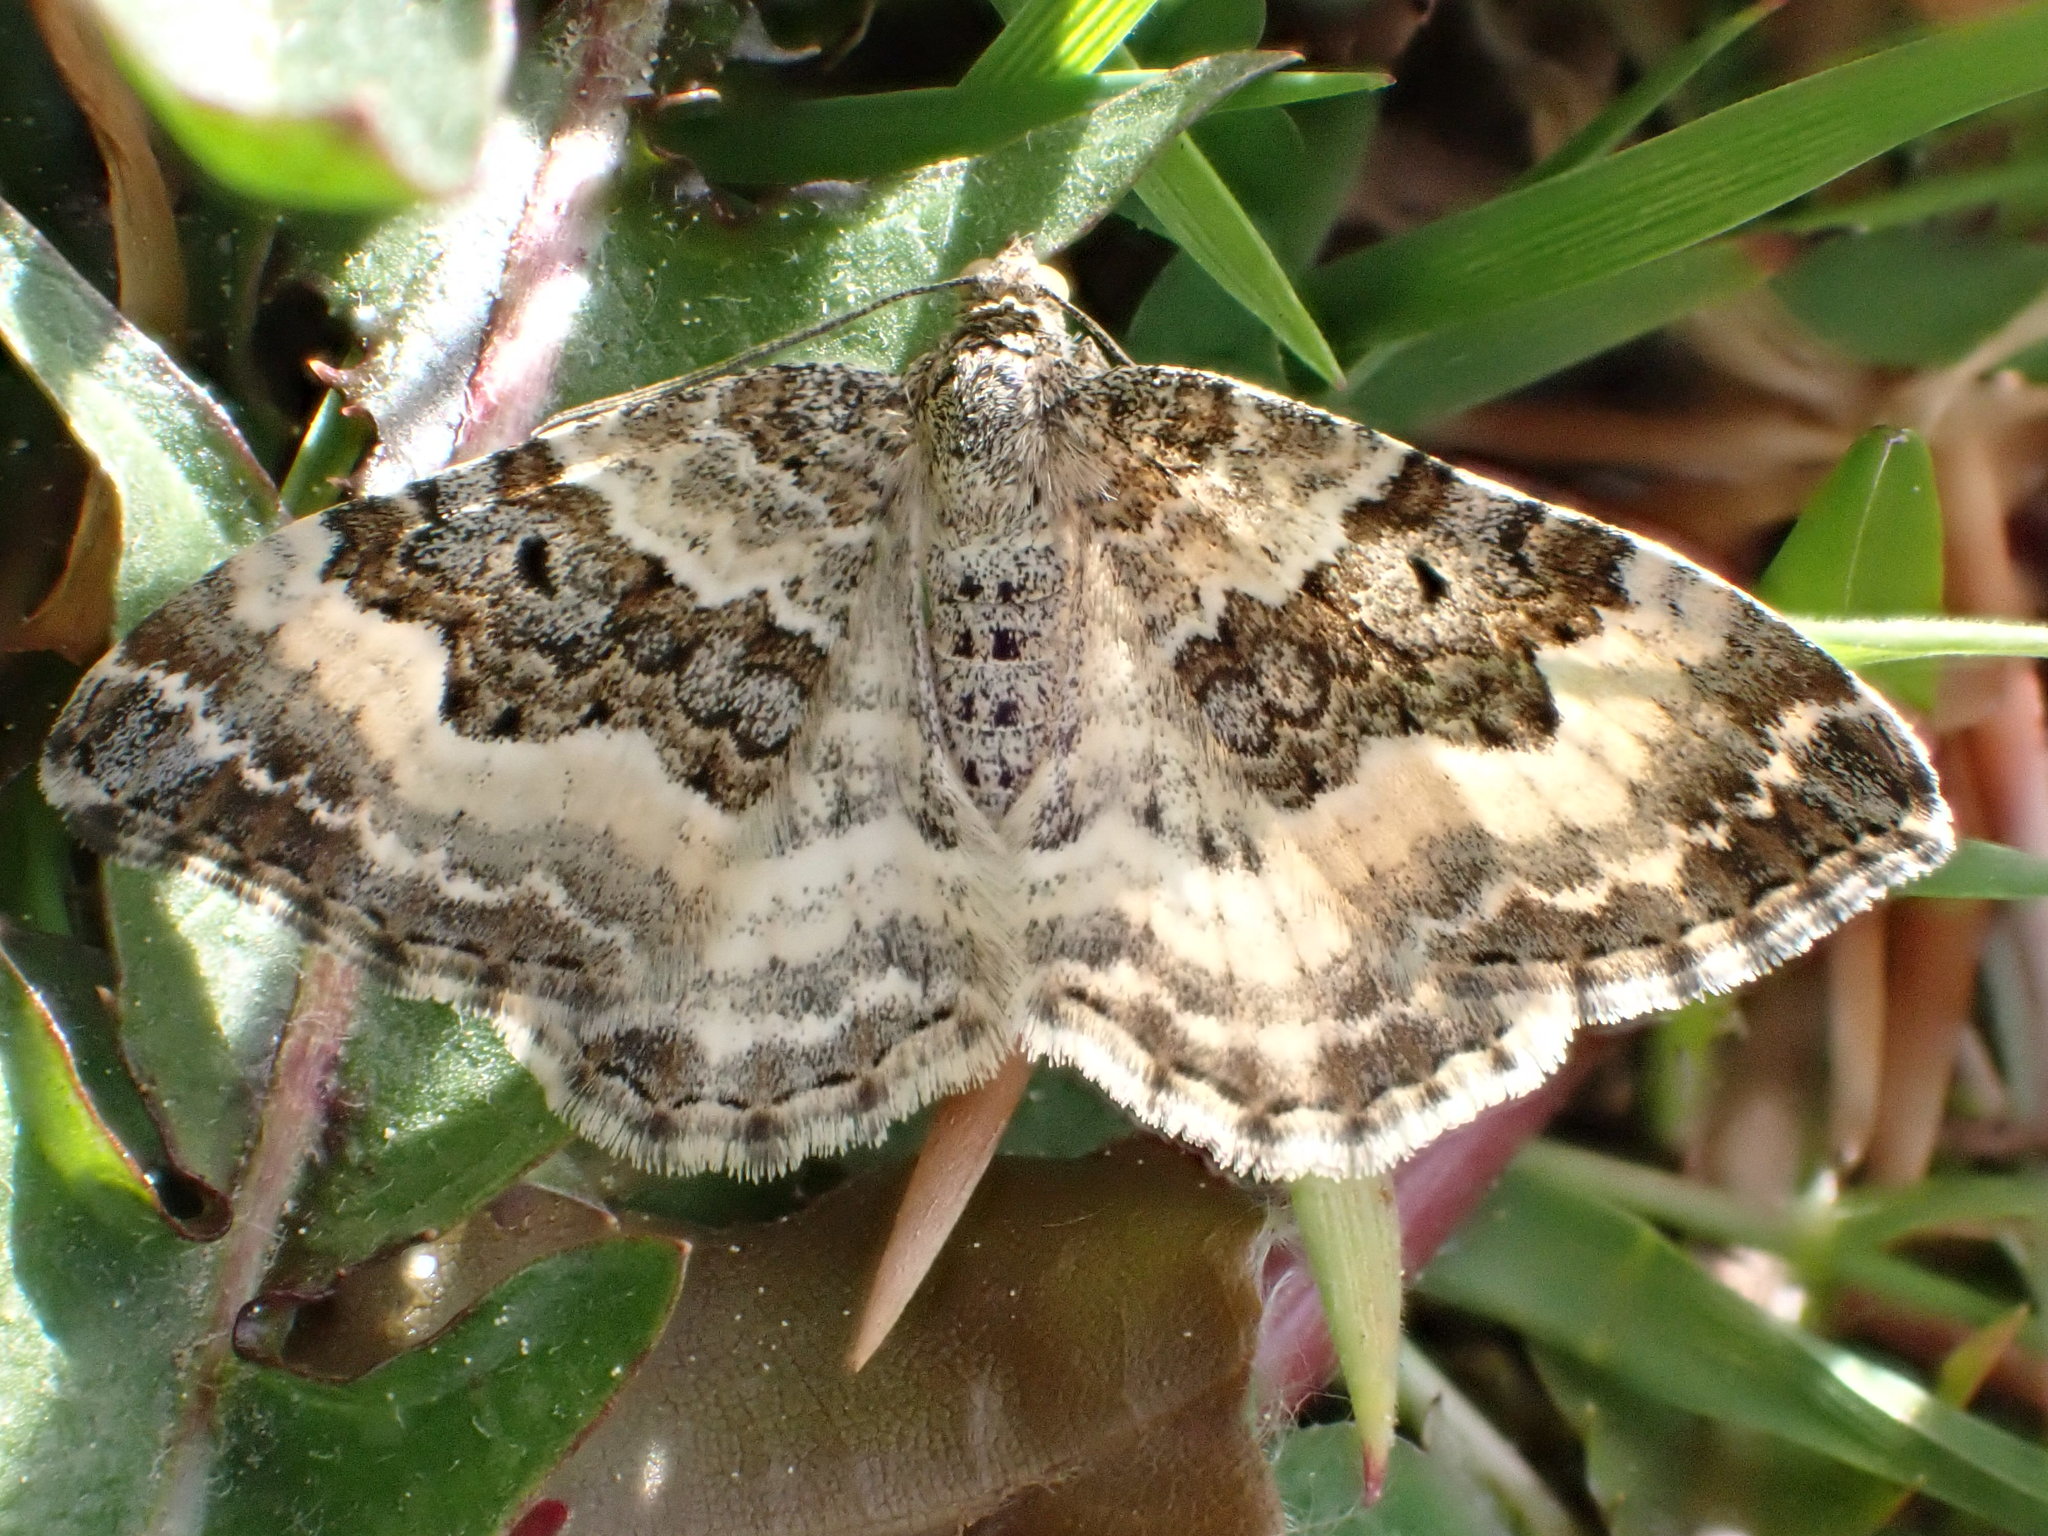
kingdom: Animalia
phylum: Arthropoda
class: Insecta
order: Lepidoptera
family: Geometridae
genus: Epirrhoe
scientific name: Epirrhoe alternata
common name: Common carpet
